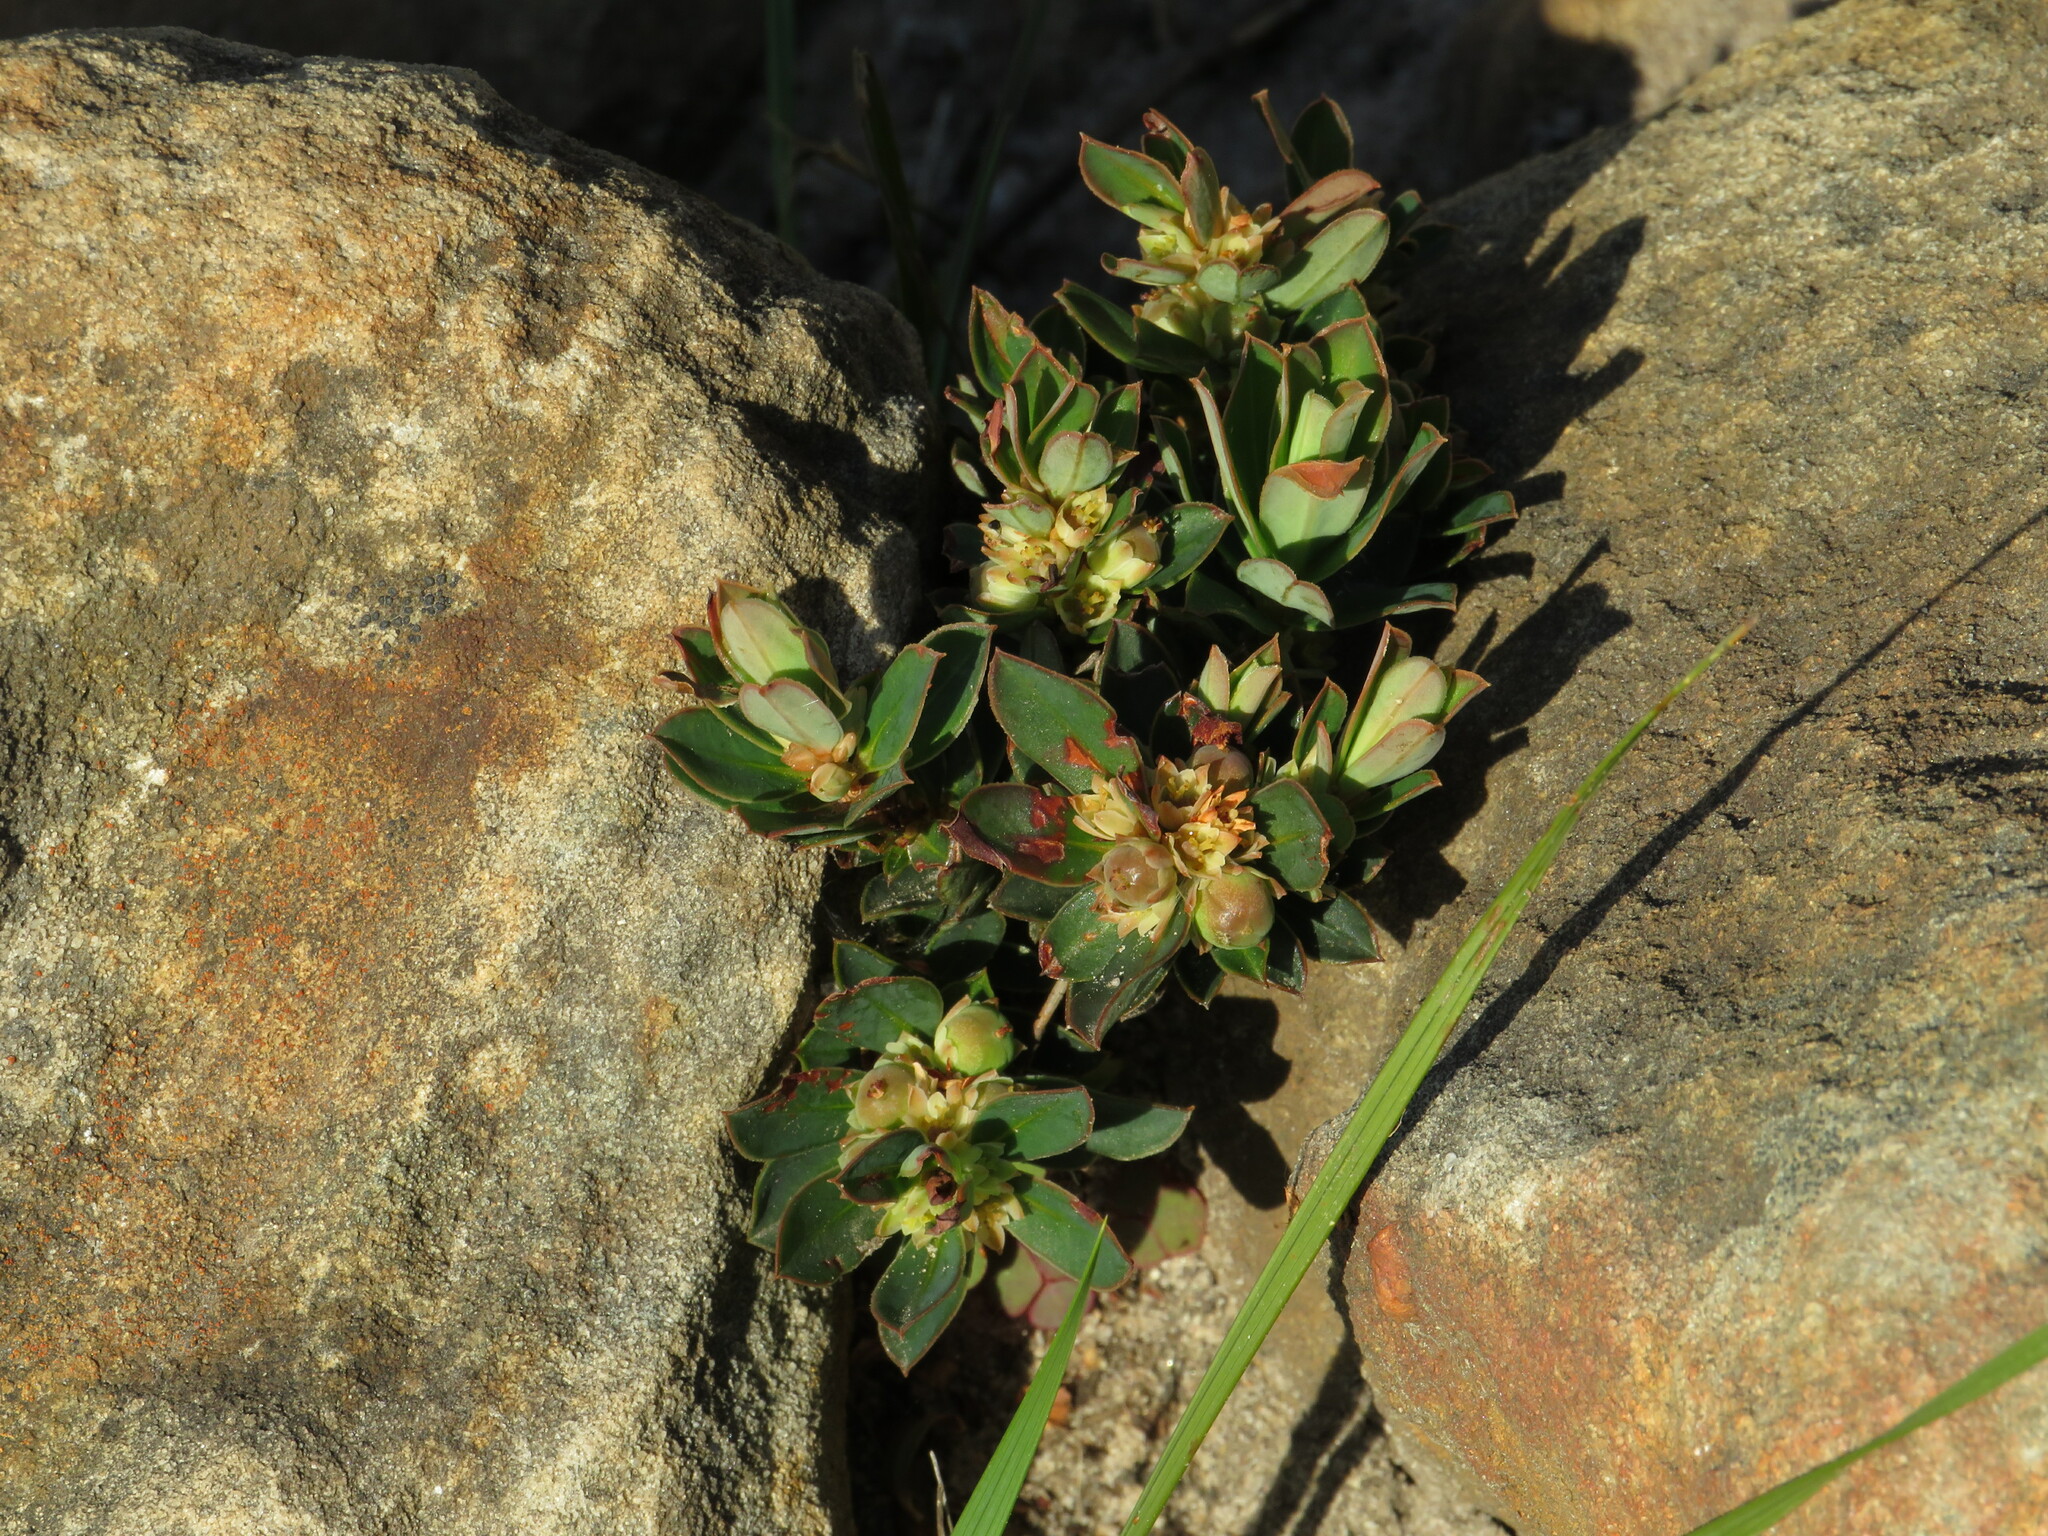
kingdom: Plantae
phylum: Tracheophyta
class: Magnoliopsida
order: Malpighiales
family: Peraceae
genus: Clutia
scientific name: Clutia alaternoides
